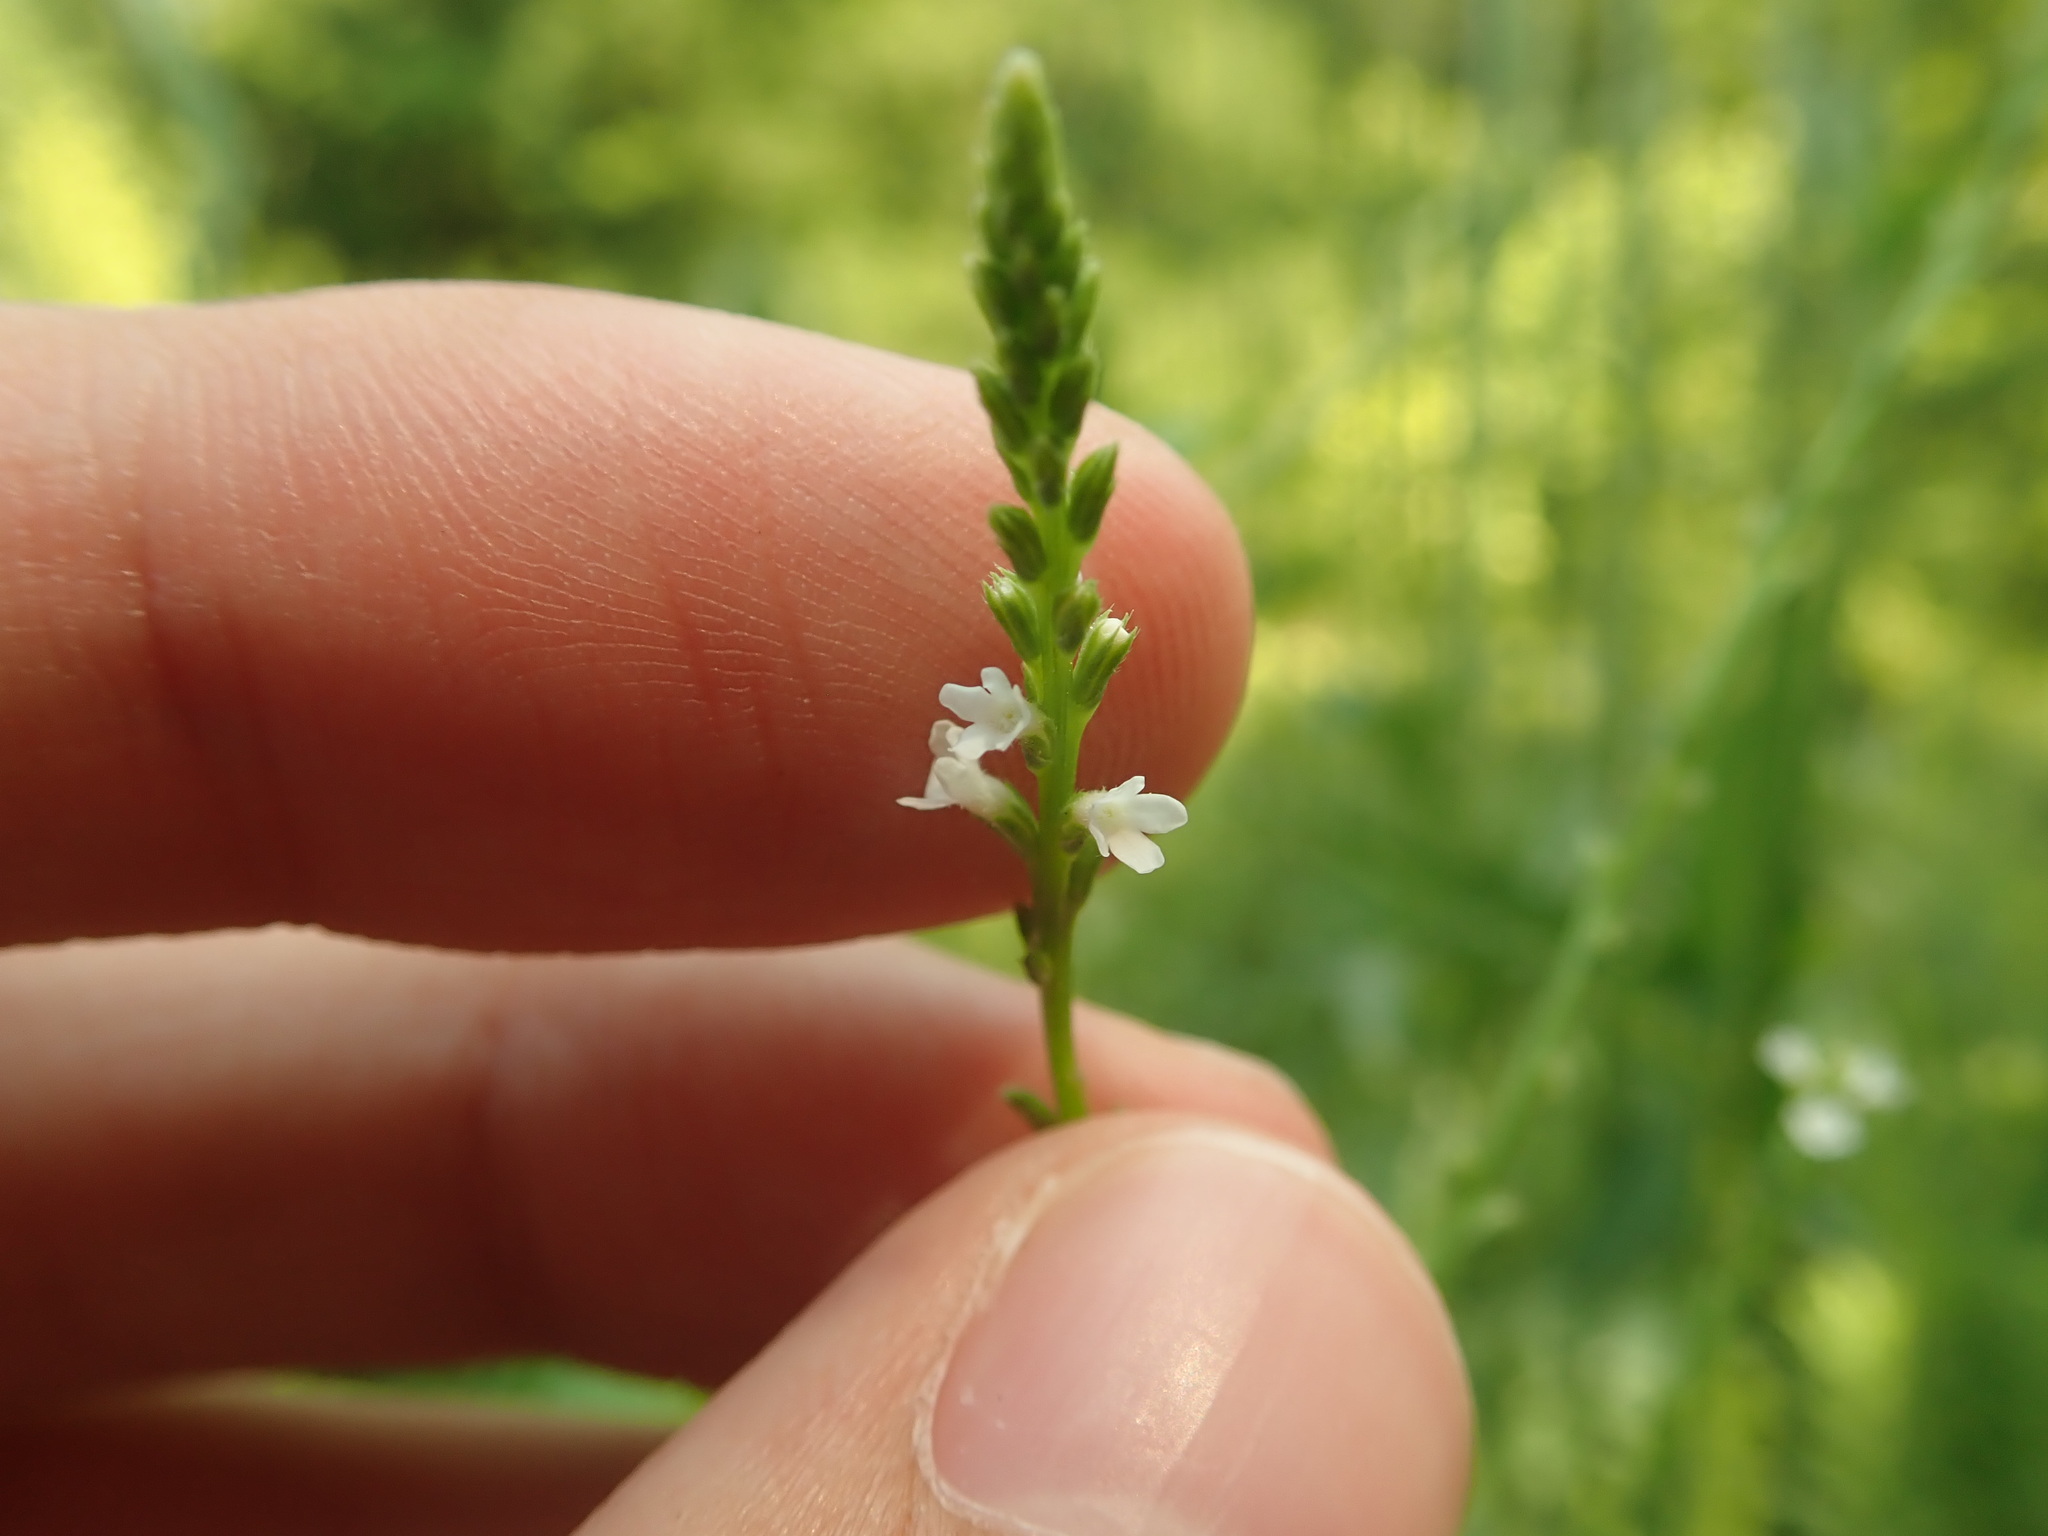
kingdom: Plantae
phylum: Tracheophyta
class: Magnoliopsida
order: Lamiales
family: Verbenaceae
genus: Verbena
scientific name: Verbena urticifolia
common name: Nettle-leaved vervain
